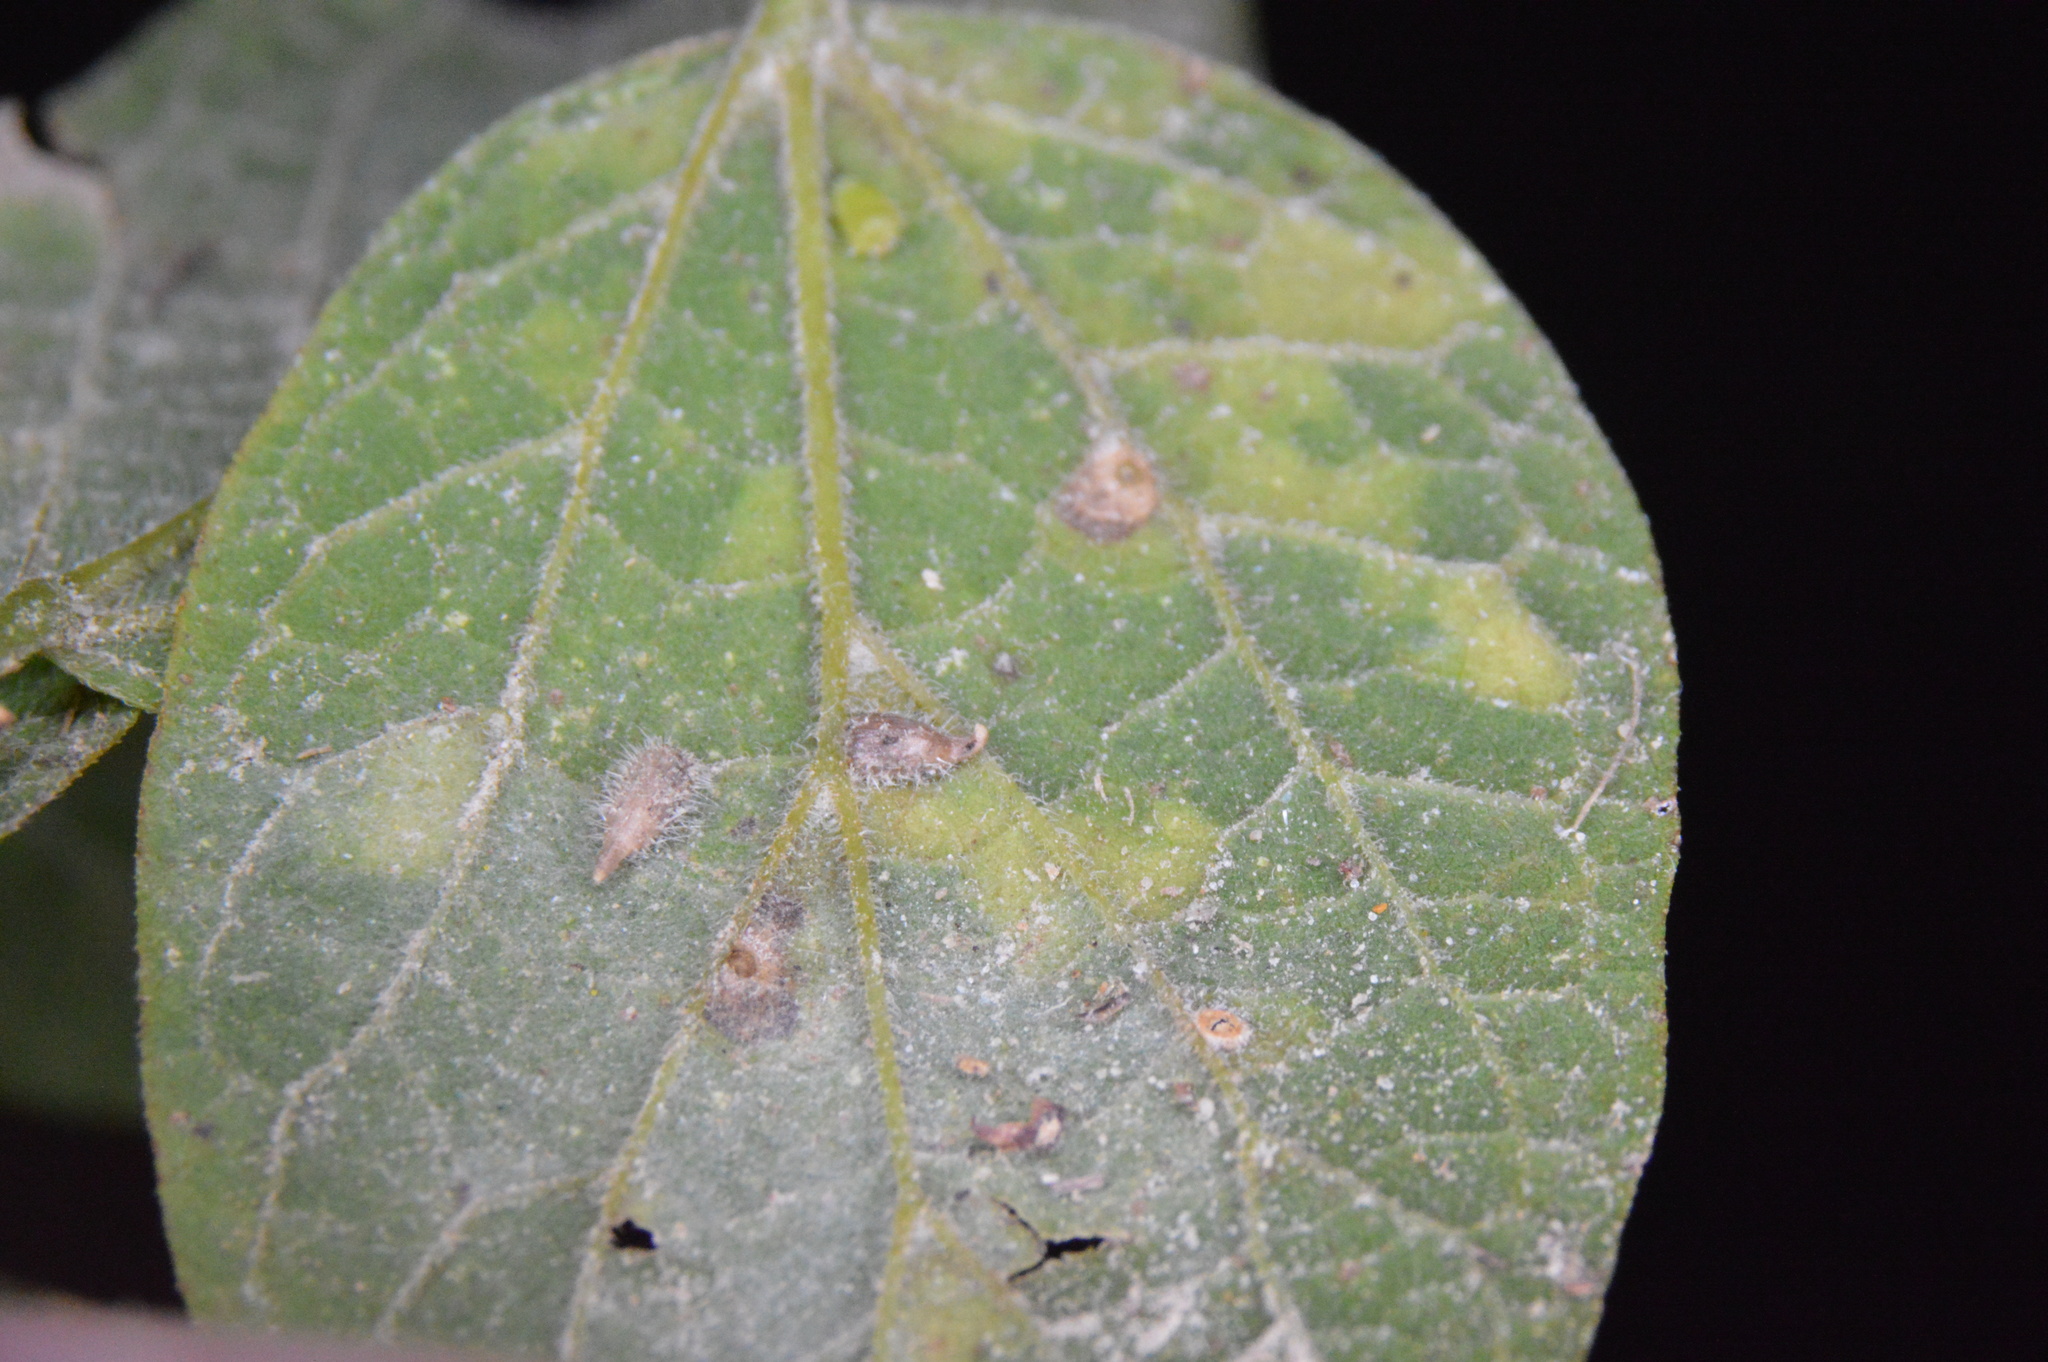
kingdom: Animalia
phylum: Arthropoda
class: Insecta
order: Diptera
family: Cecidomyiidae
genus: Celticecis
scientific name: Celticecis supina
